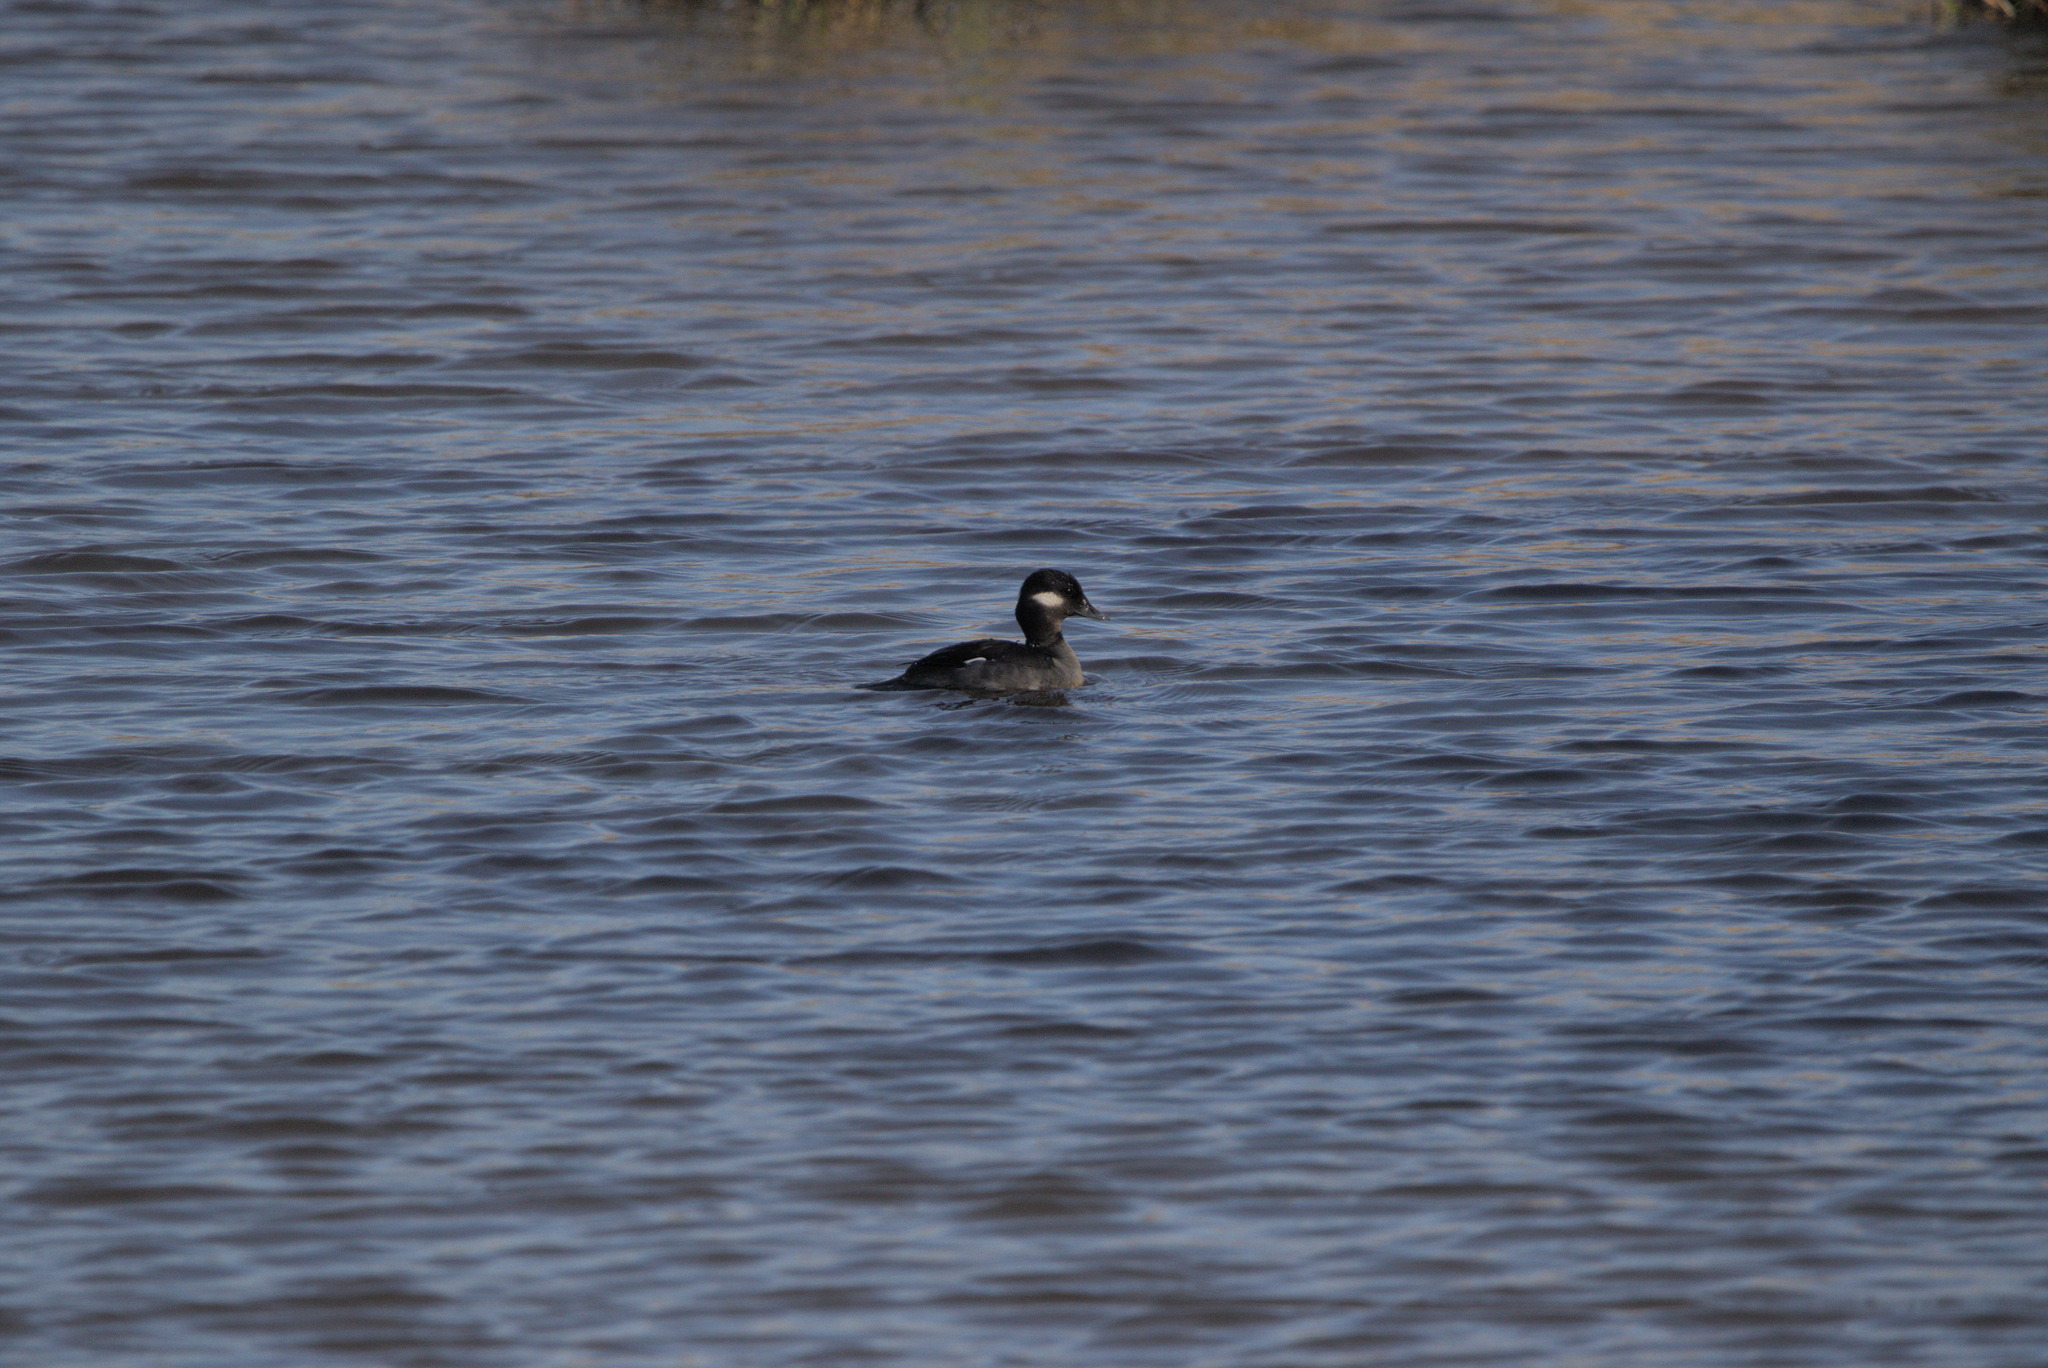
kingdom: Animalia
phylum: Chordata
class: Aves
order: Anseriformes
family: Anatidae
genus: Bucephala
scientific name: Bucephala albeola
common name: Bufflehead
